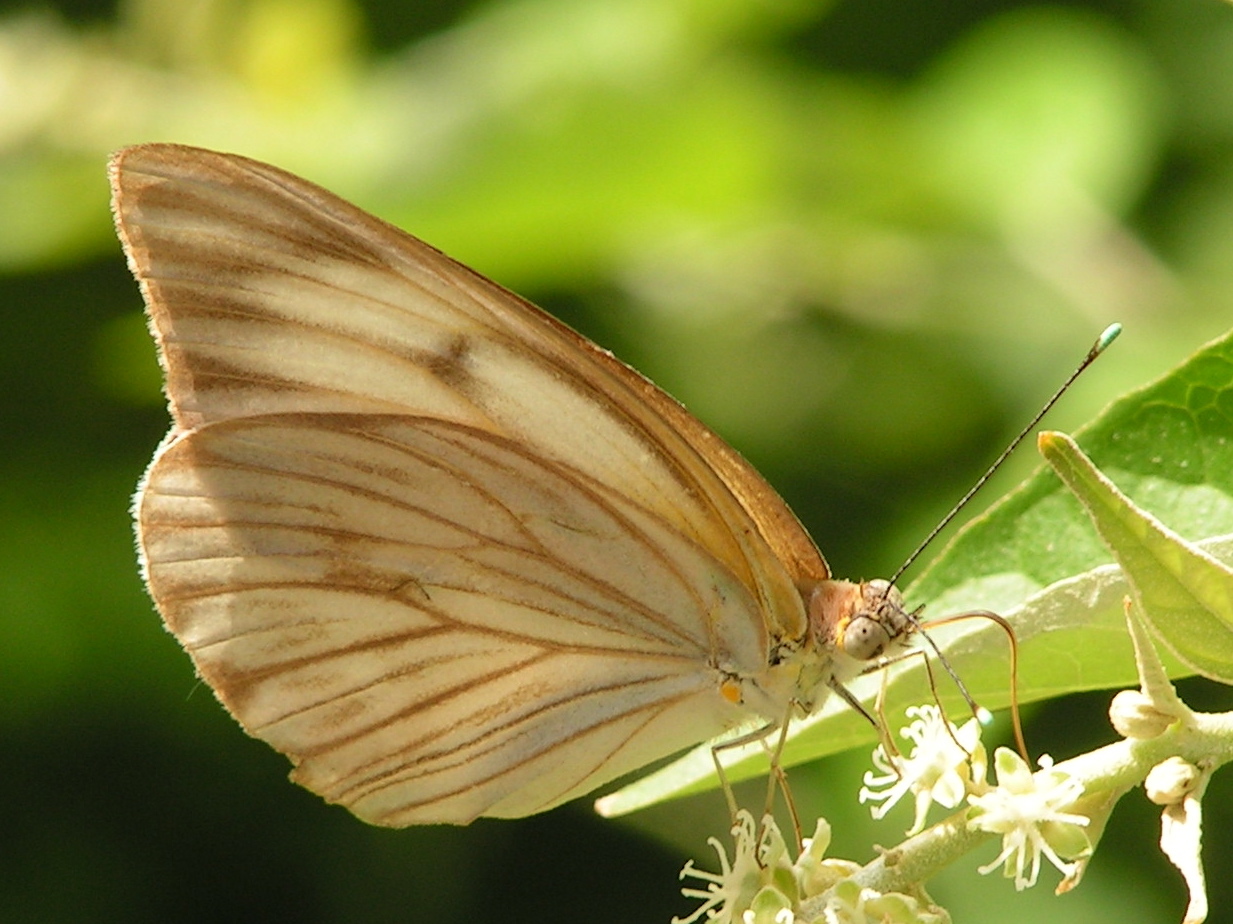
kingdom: Animalia
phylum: Arthropoda
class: Insecta
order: Lepidoptera
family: Pieridae
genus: Ascia
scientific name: Ascia monuste
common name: Great southern white
